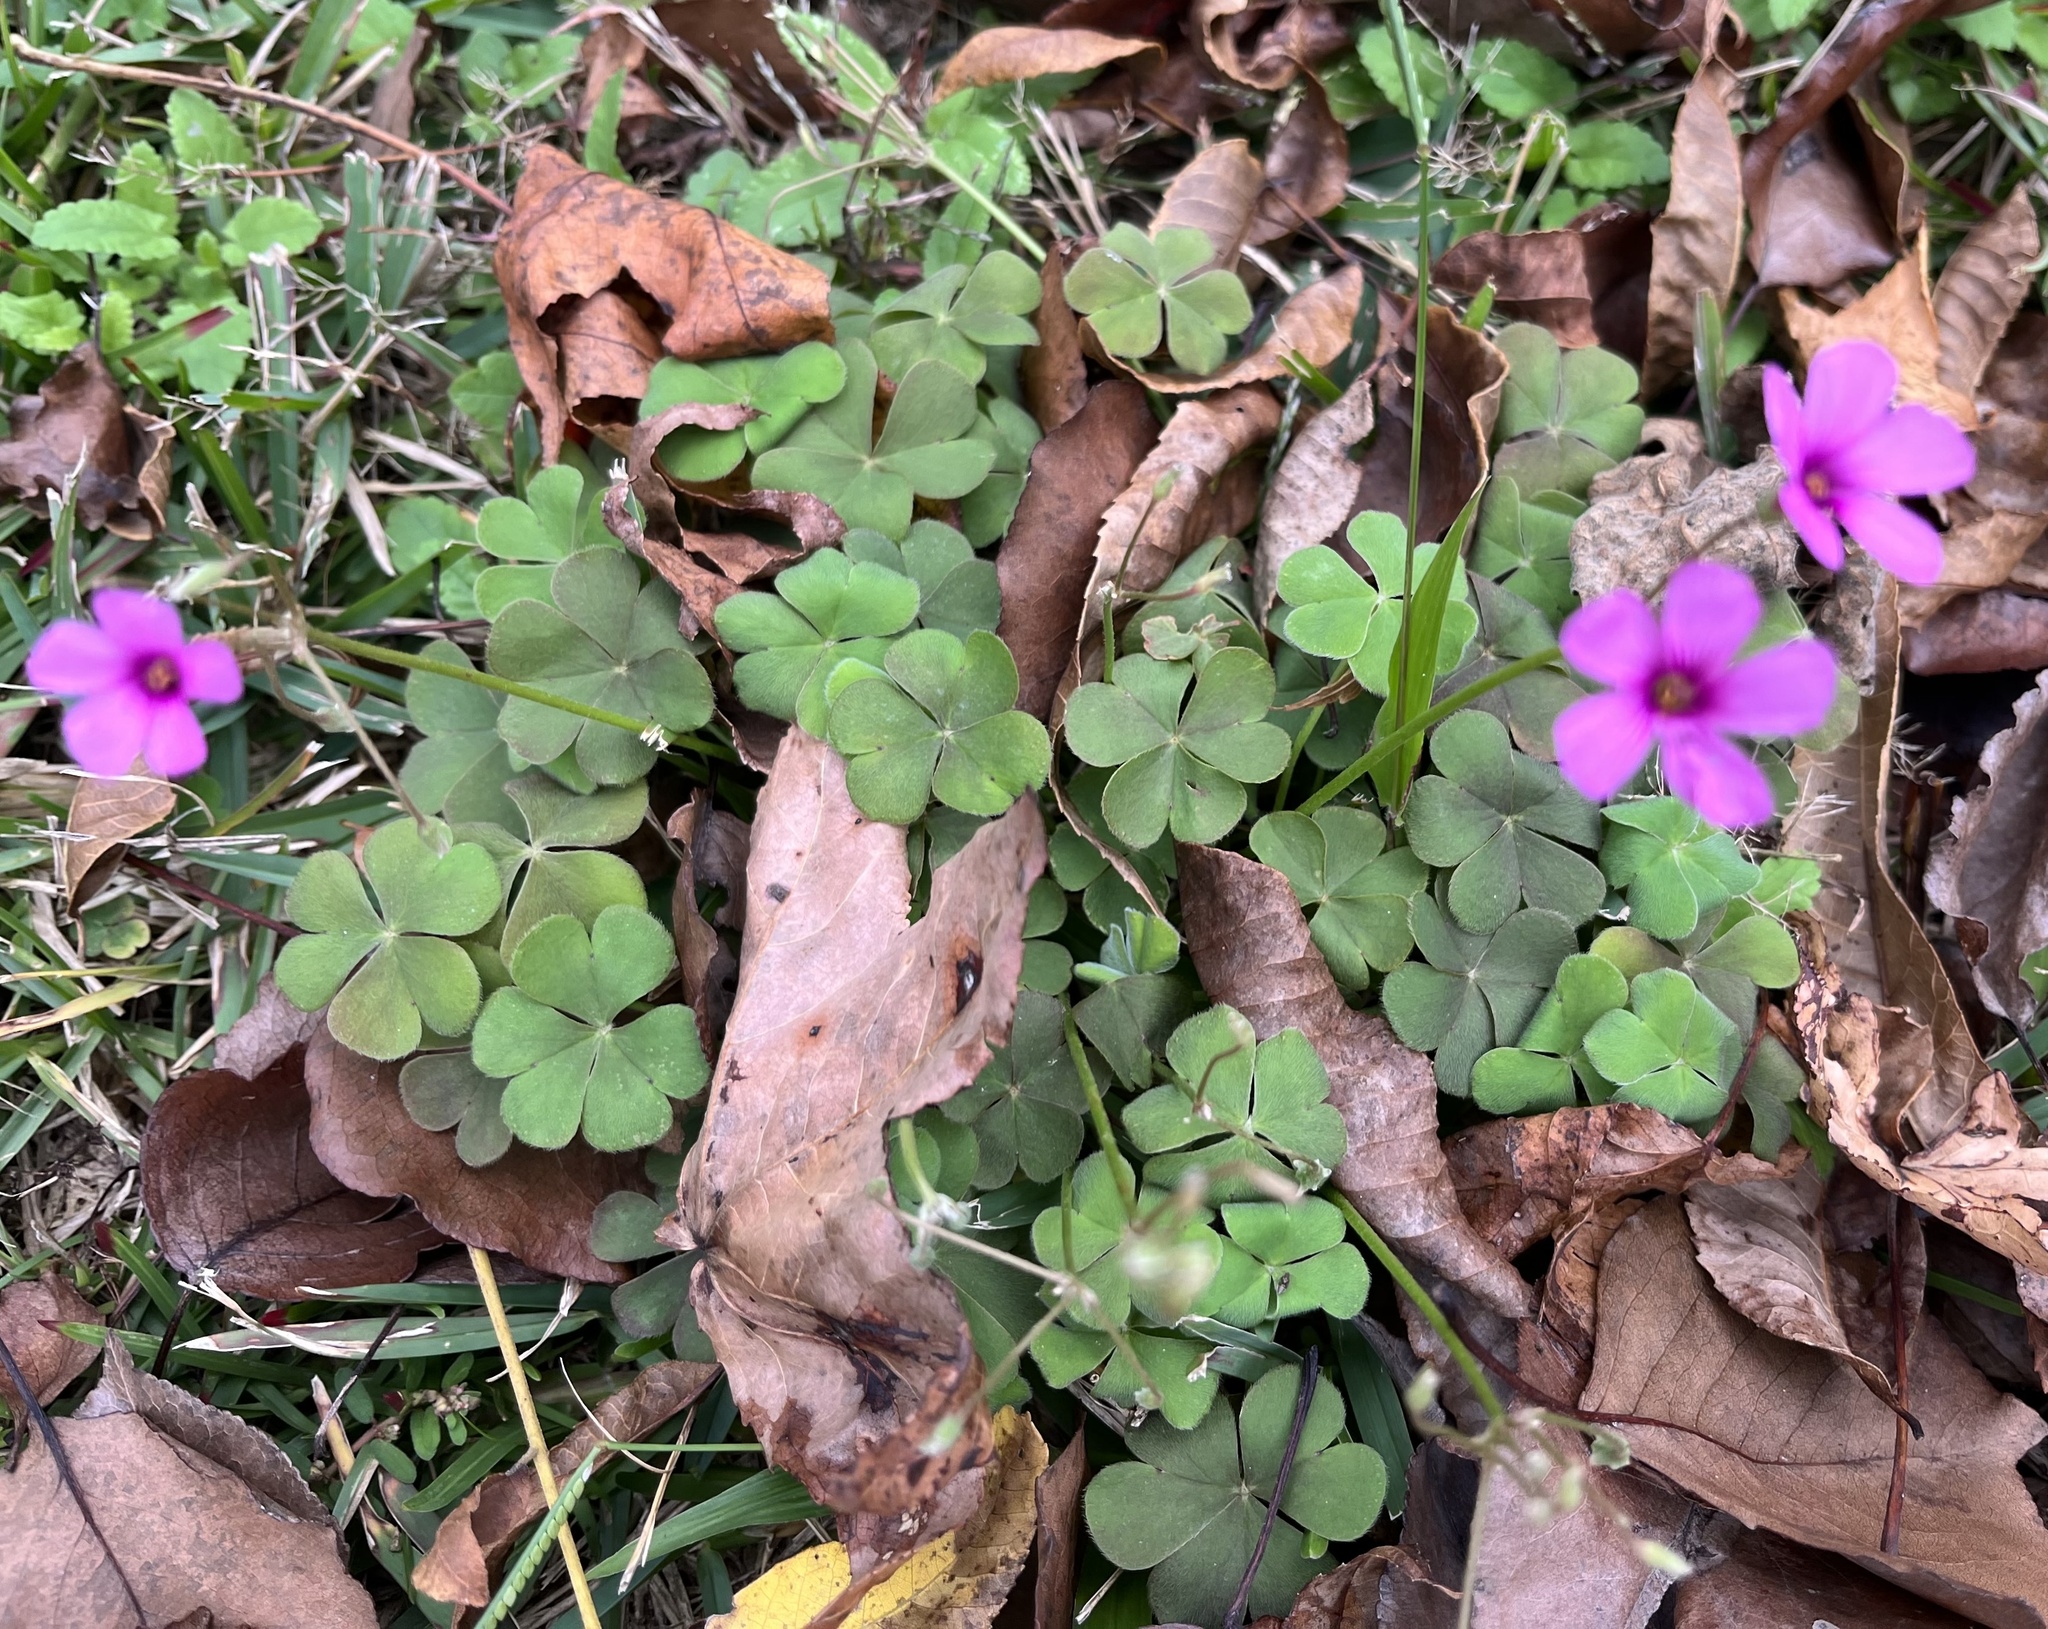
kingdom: Plantae
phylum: Tracheophyta
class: Magnoliopsida
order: Oxalidales
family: Oxalidaceae
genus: Oxalis
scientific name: Oxalis articulata
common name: Pink-sorrel
